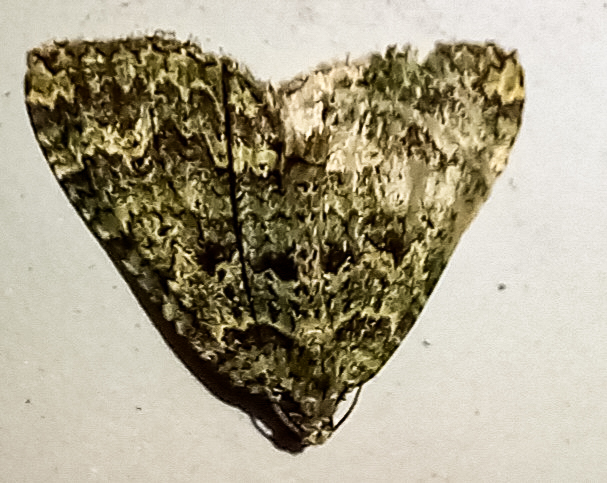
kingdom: Animalia
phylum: Arthropoda
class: Insecta
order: Lepidoptera
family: Geometridae
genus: Austrocidaria
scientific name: Austrocidaria callichlora
